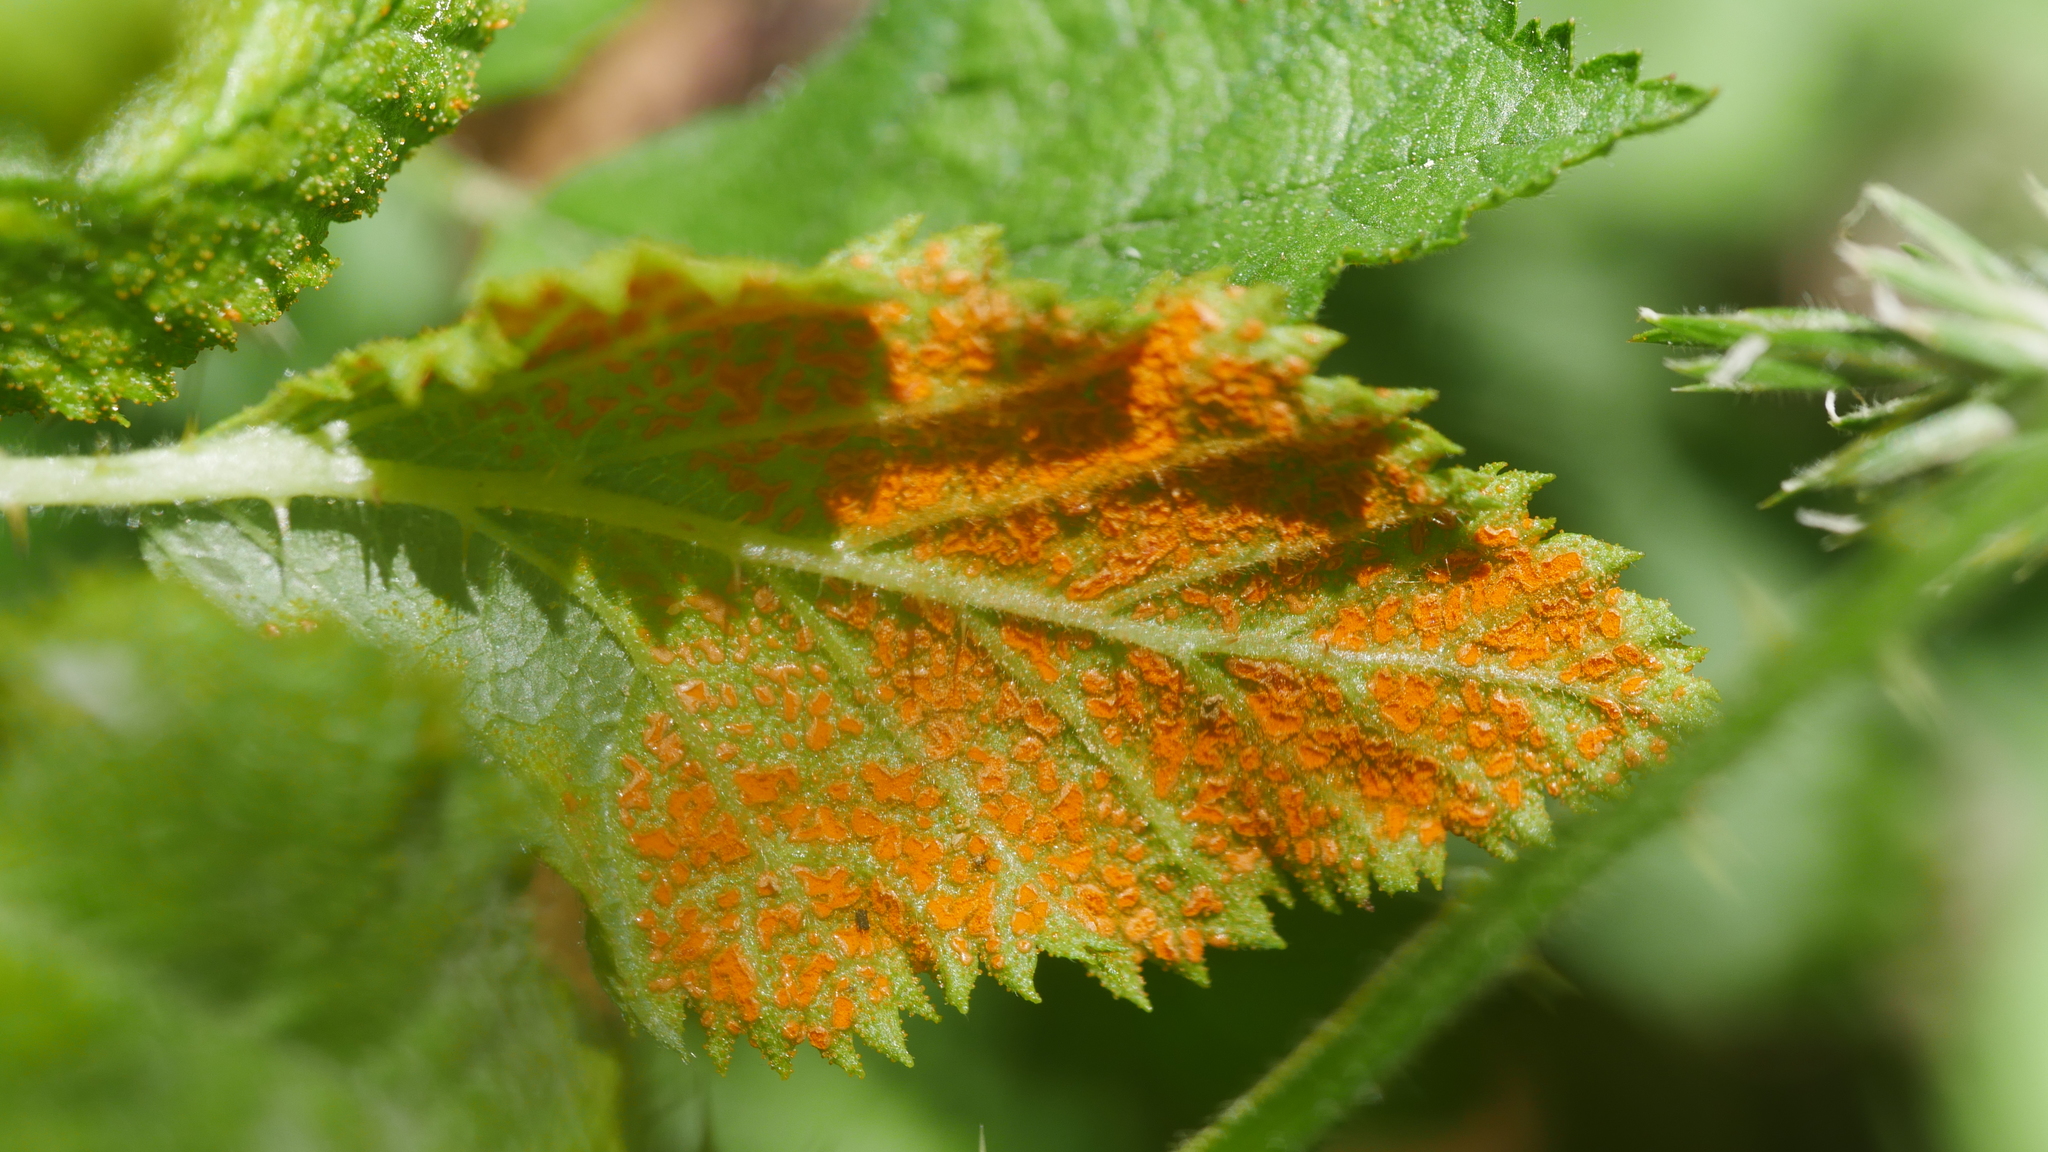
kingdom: Fungi
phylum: Basidiomycota
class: Pucciniomycetes
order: Pucciniales
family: Phragmidiaceae
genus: Arthuriomyces
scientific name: Arthuriomyces peckianus
